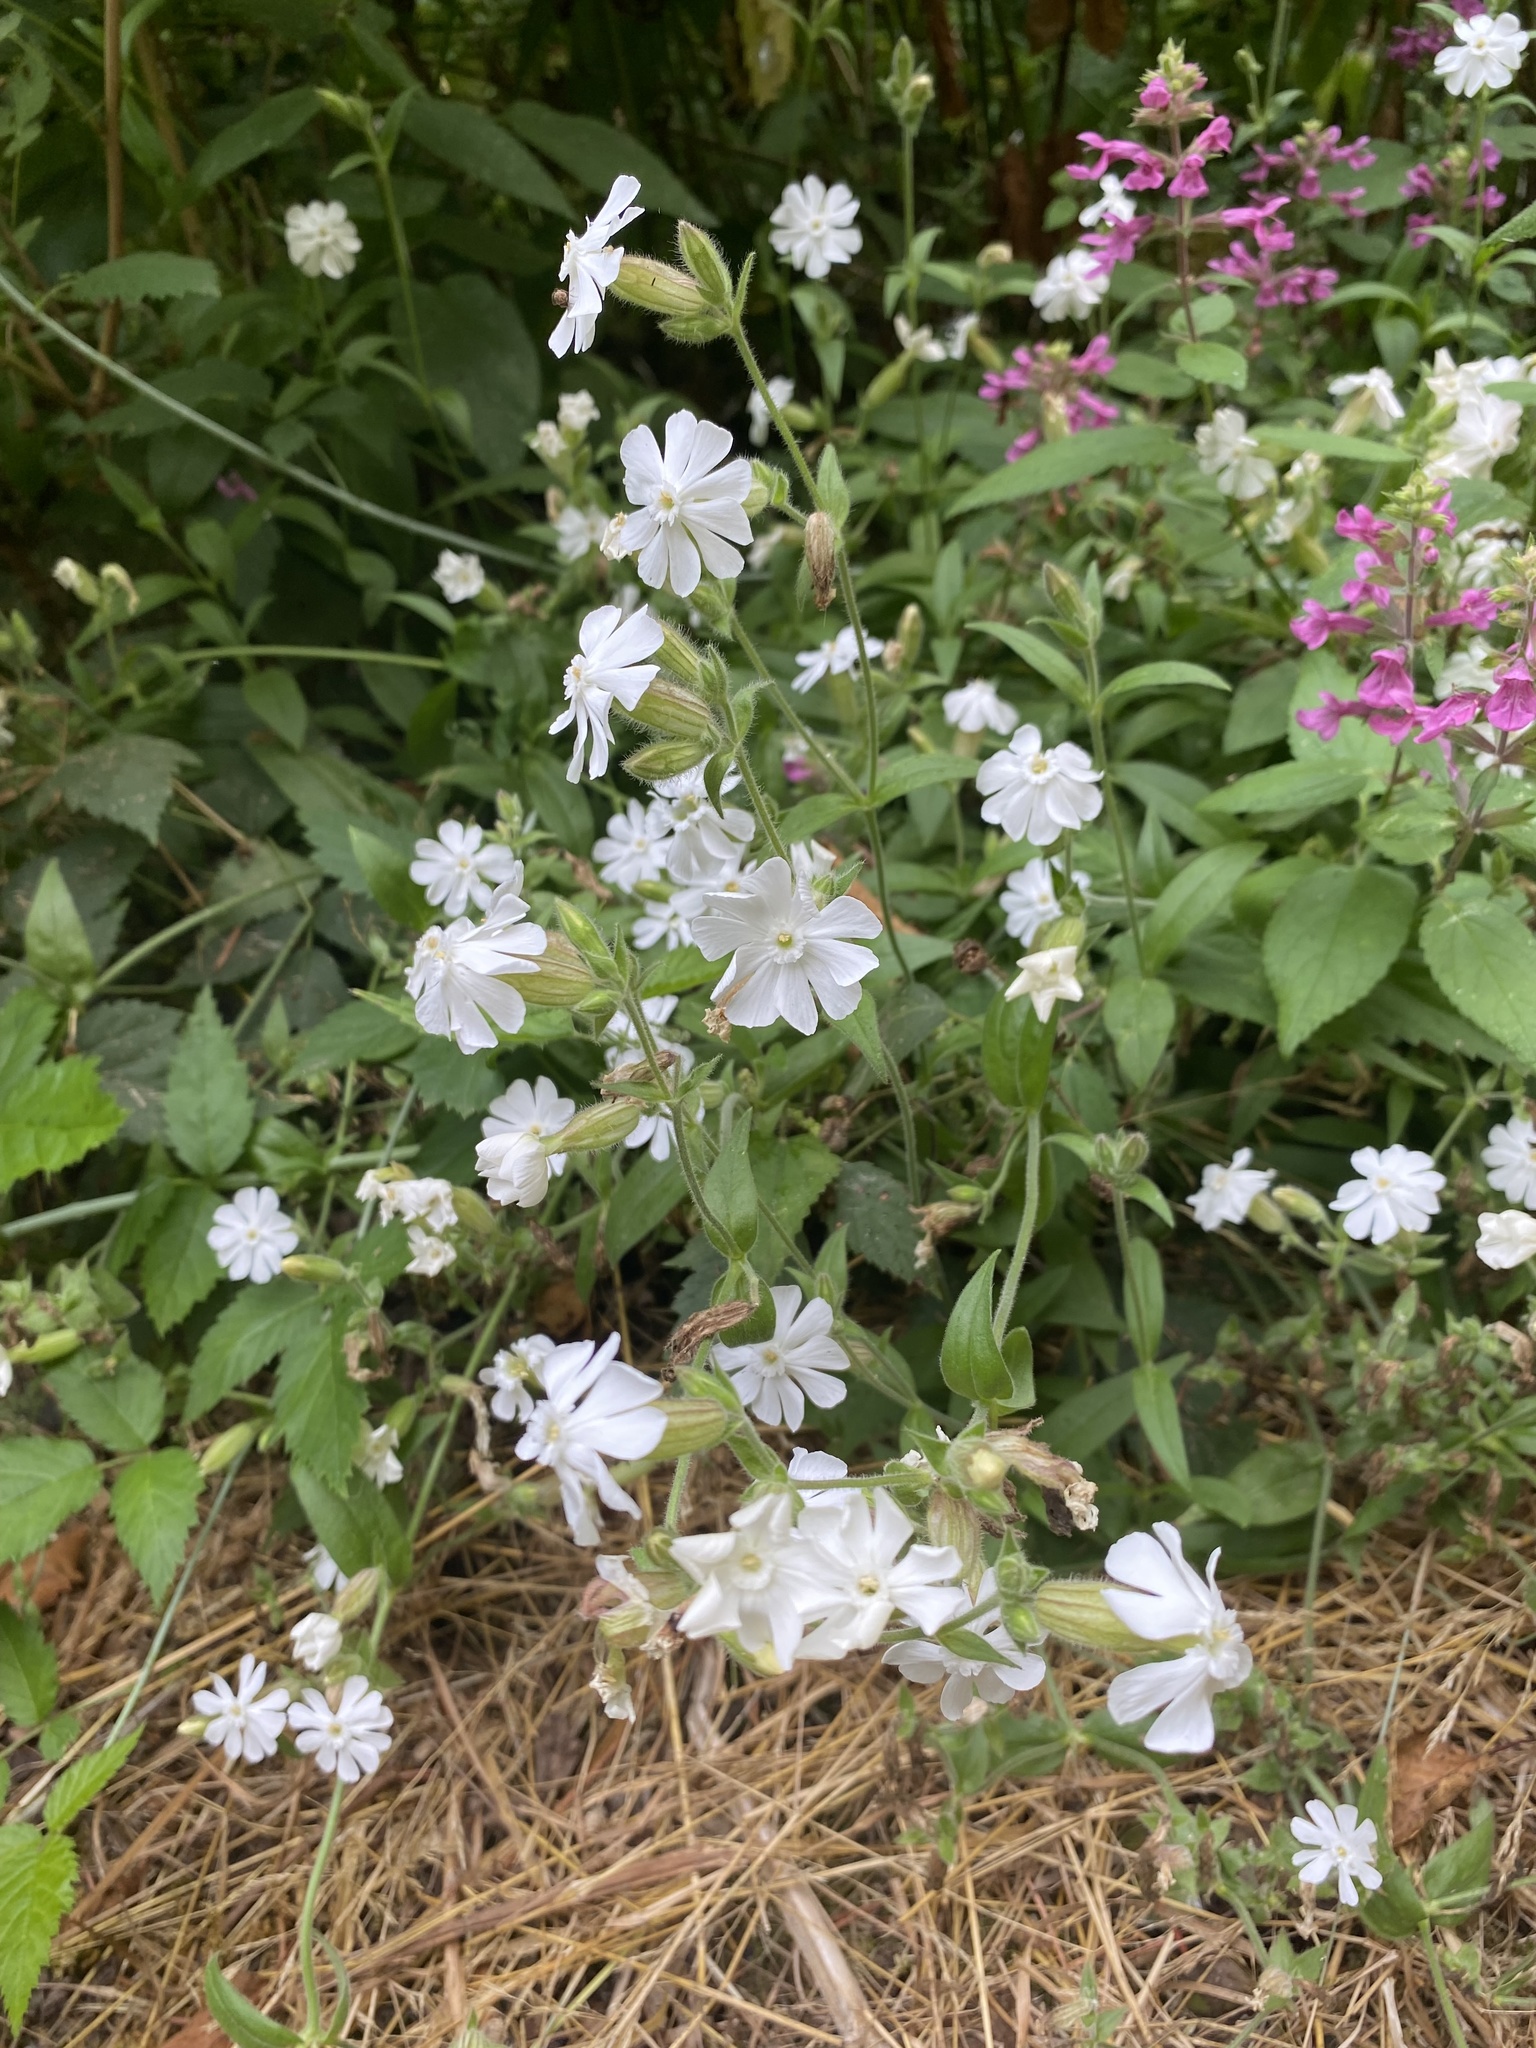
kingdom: Plantae
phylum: Tracheophyta
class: Magnoliopsida
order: Caryophyllales
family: Caryophyllaceae
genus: Silene
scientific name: Silene latifolia
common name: White campion
